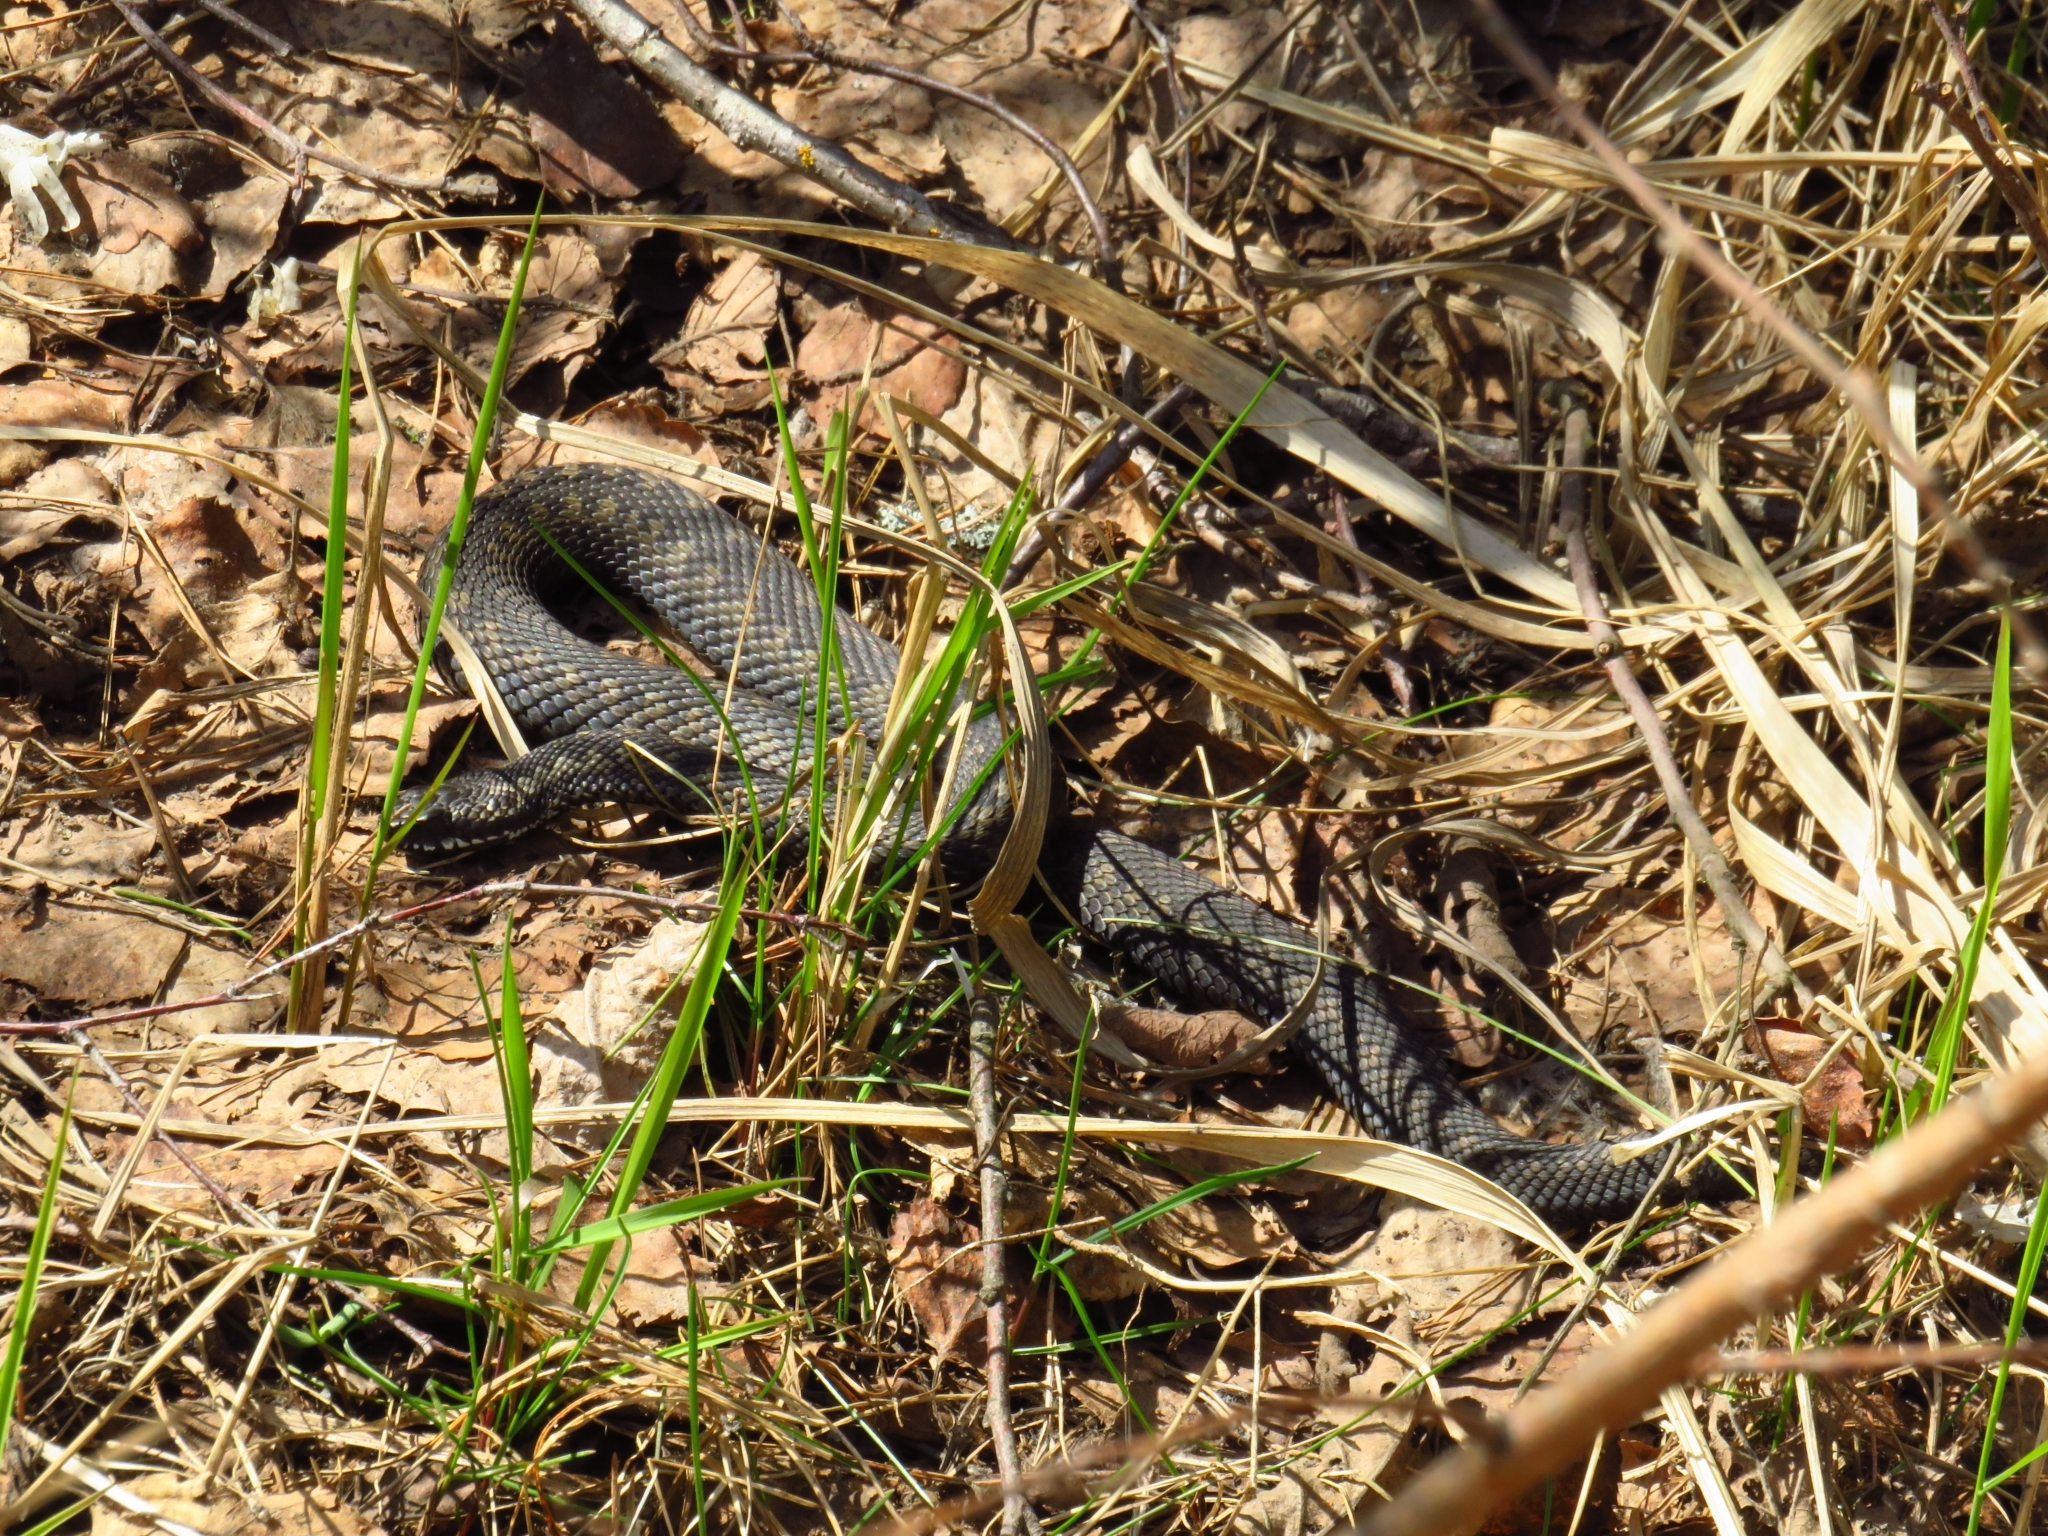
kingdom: Animalia
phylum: Chordata
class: Squamata
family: Viperidae
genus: Vipera
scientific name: Vipera berus
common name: Adder
